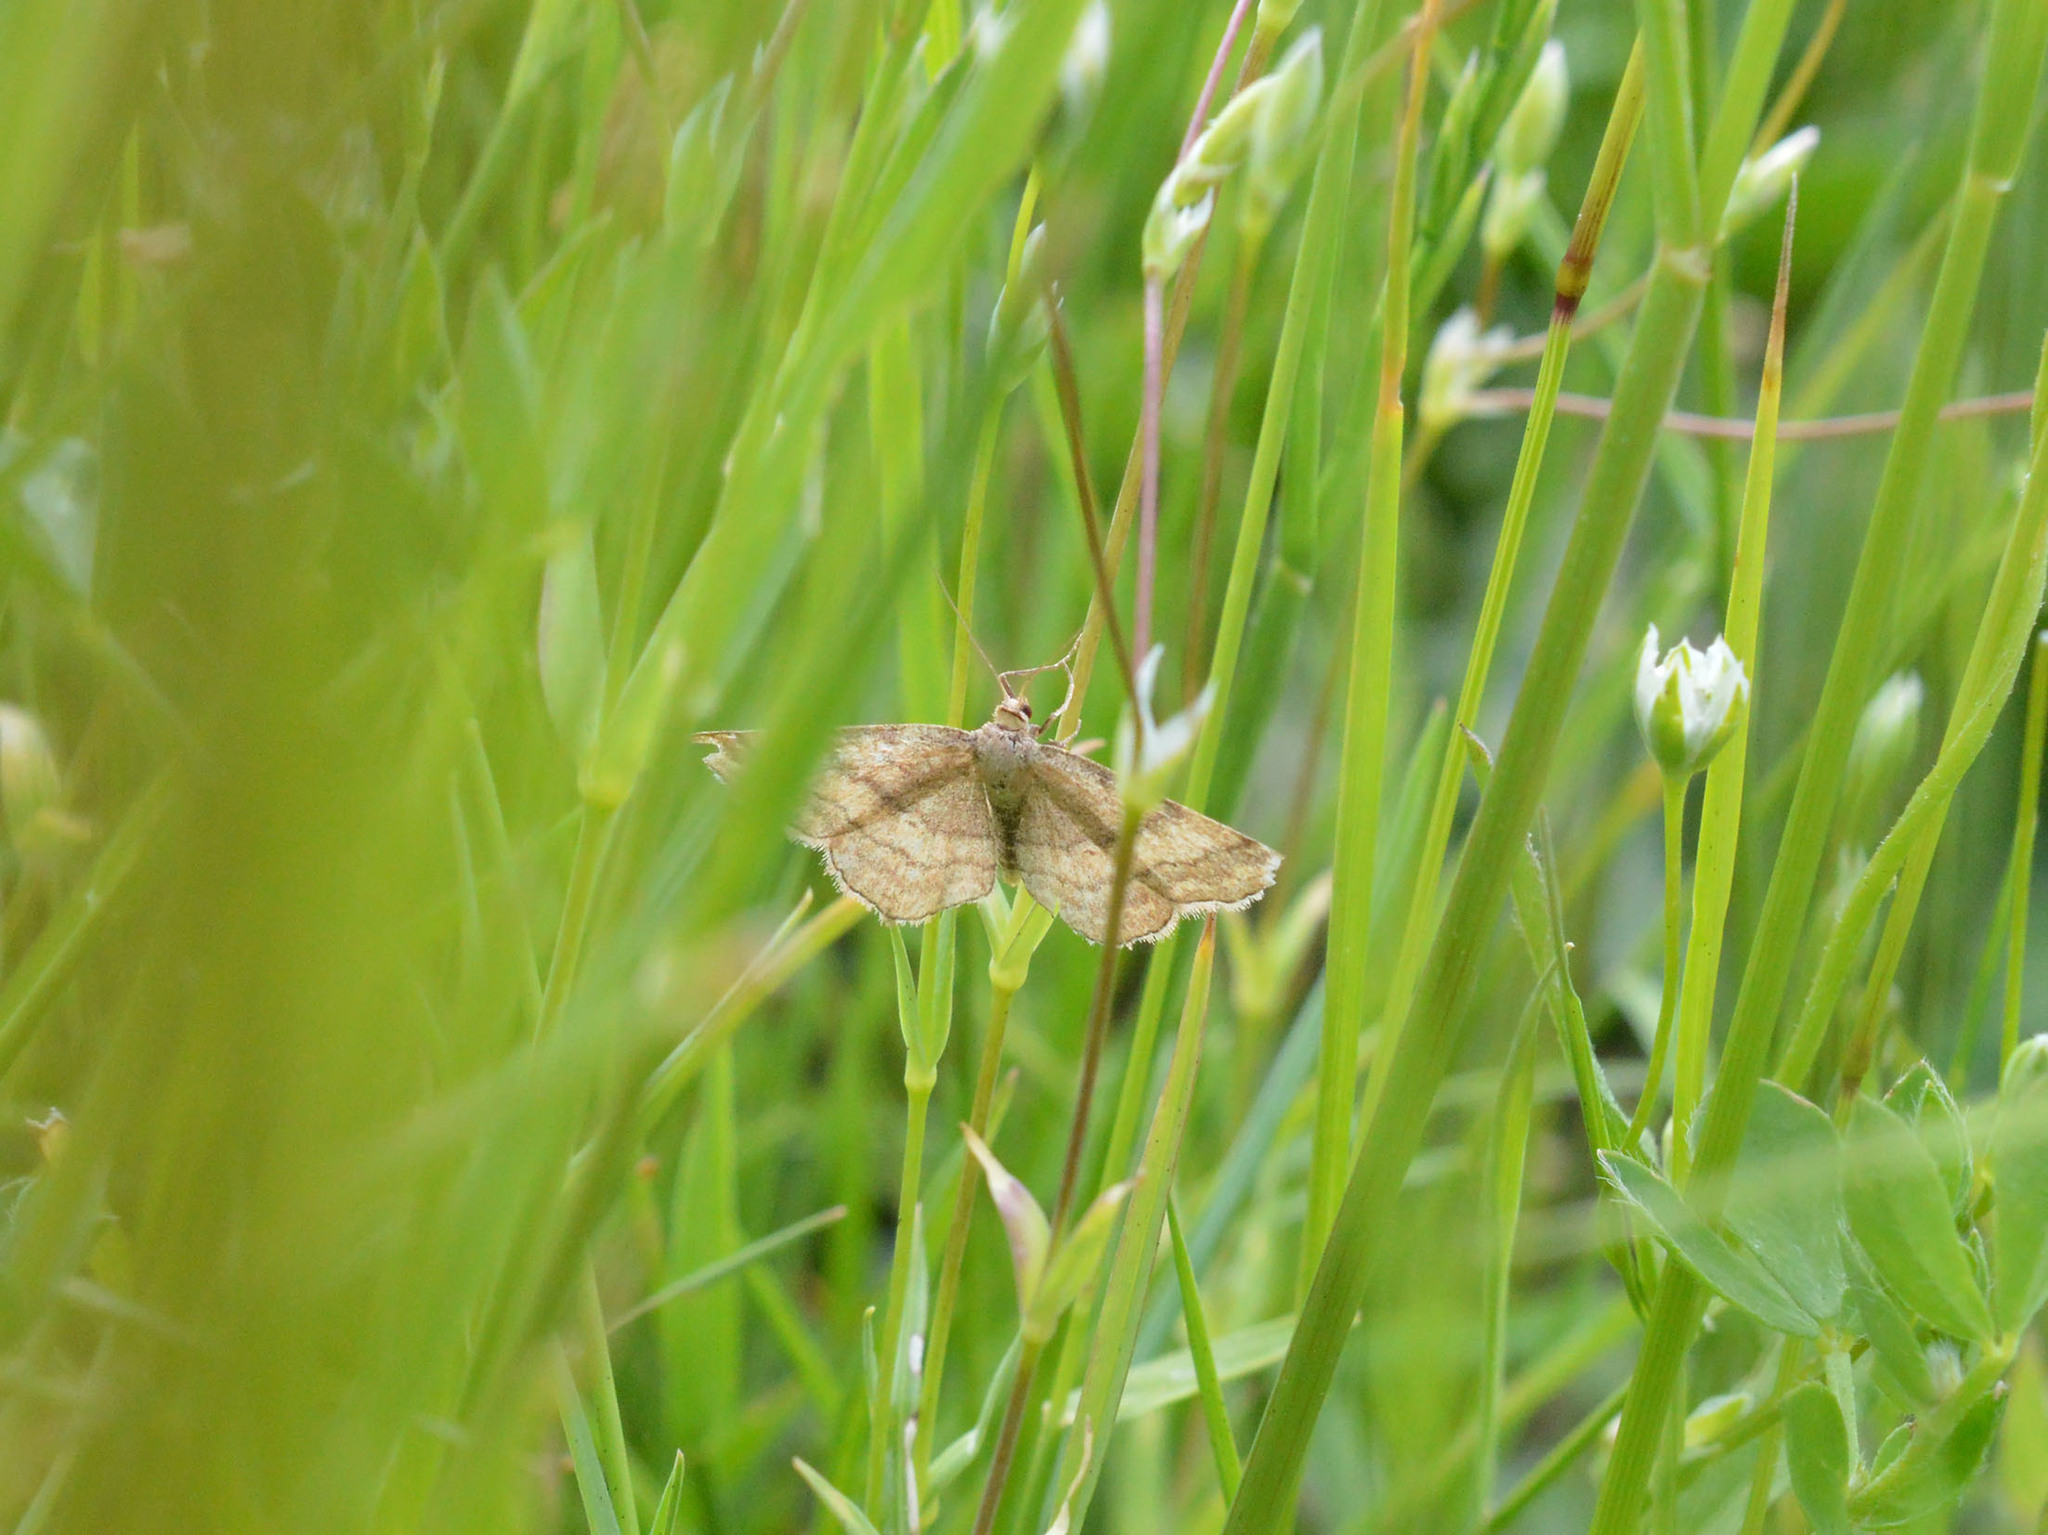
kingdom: Animalia
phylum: Arthropoda
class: Insecta
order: Lepidoptera
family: Geometridae
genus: Scopula
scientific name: Scopula rubiginata
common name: Tawny wave
